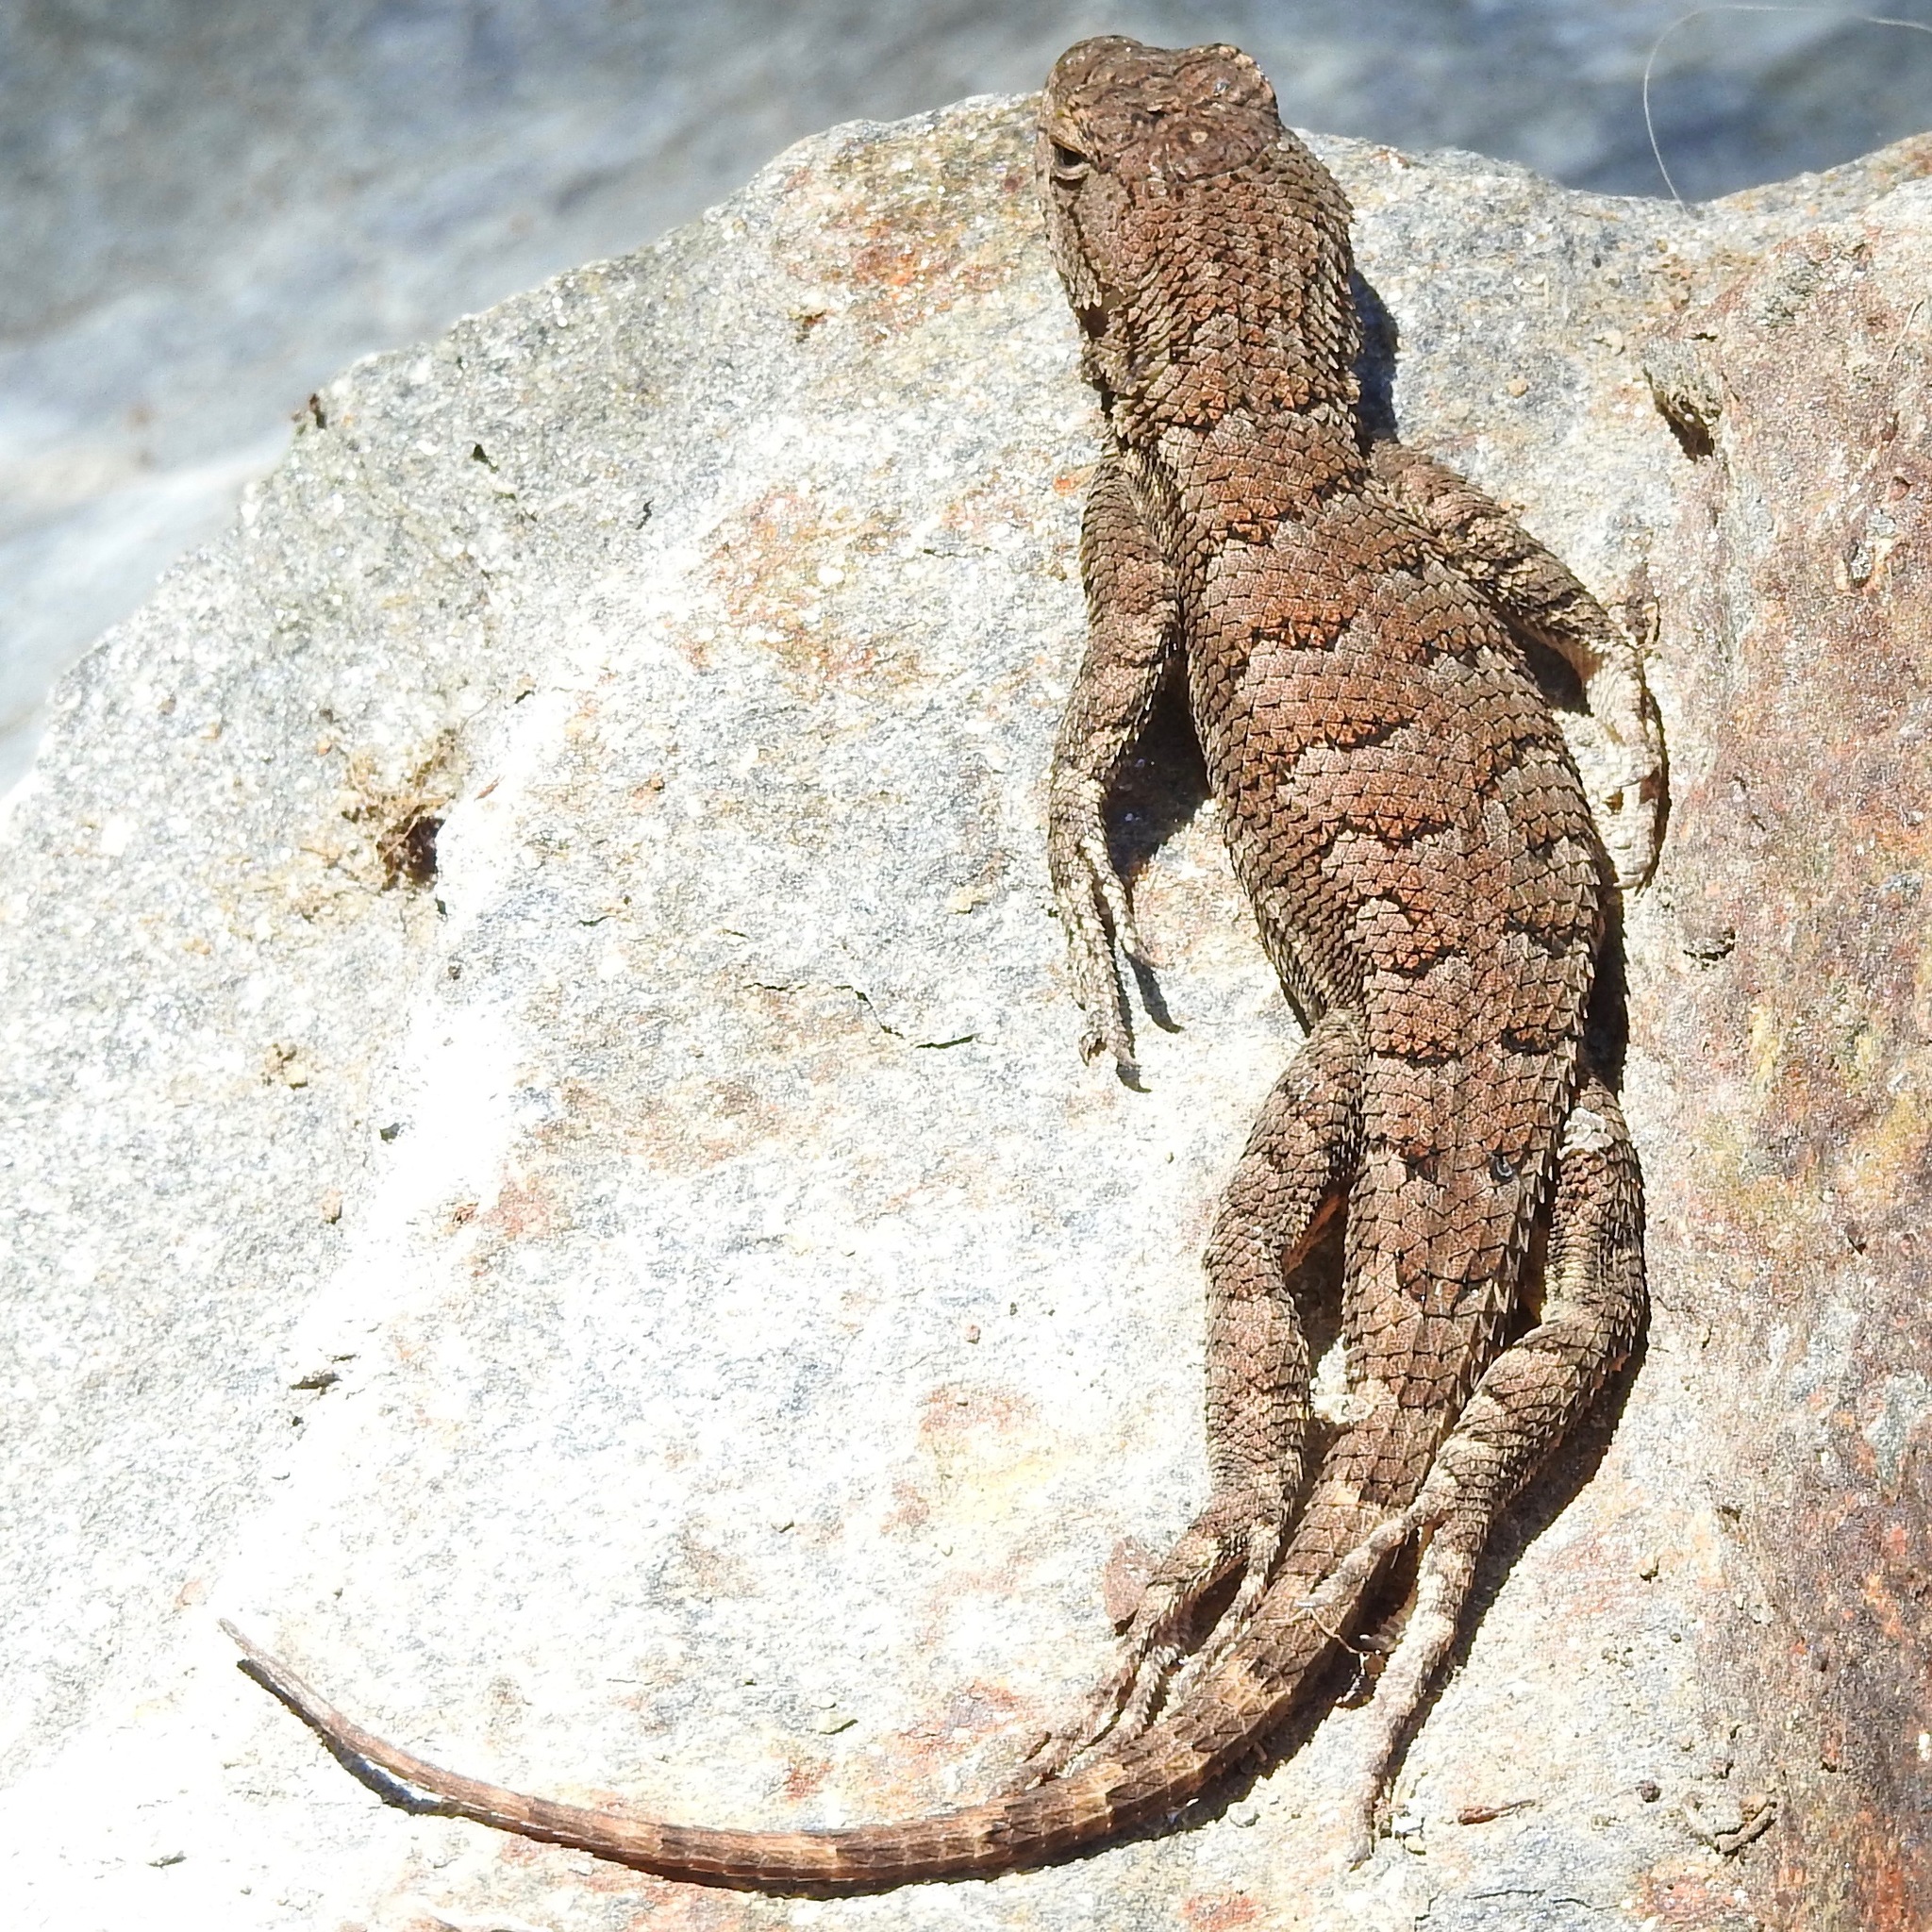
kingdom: Animalia
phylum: Chordata
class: Squamata
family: Phrynosomatidae
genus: Sceloporus
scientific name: Sceloporus occidentalis
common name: Western fence lizard
